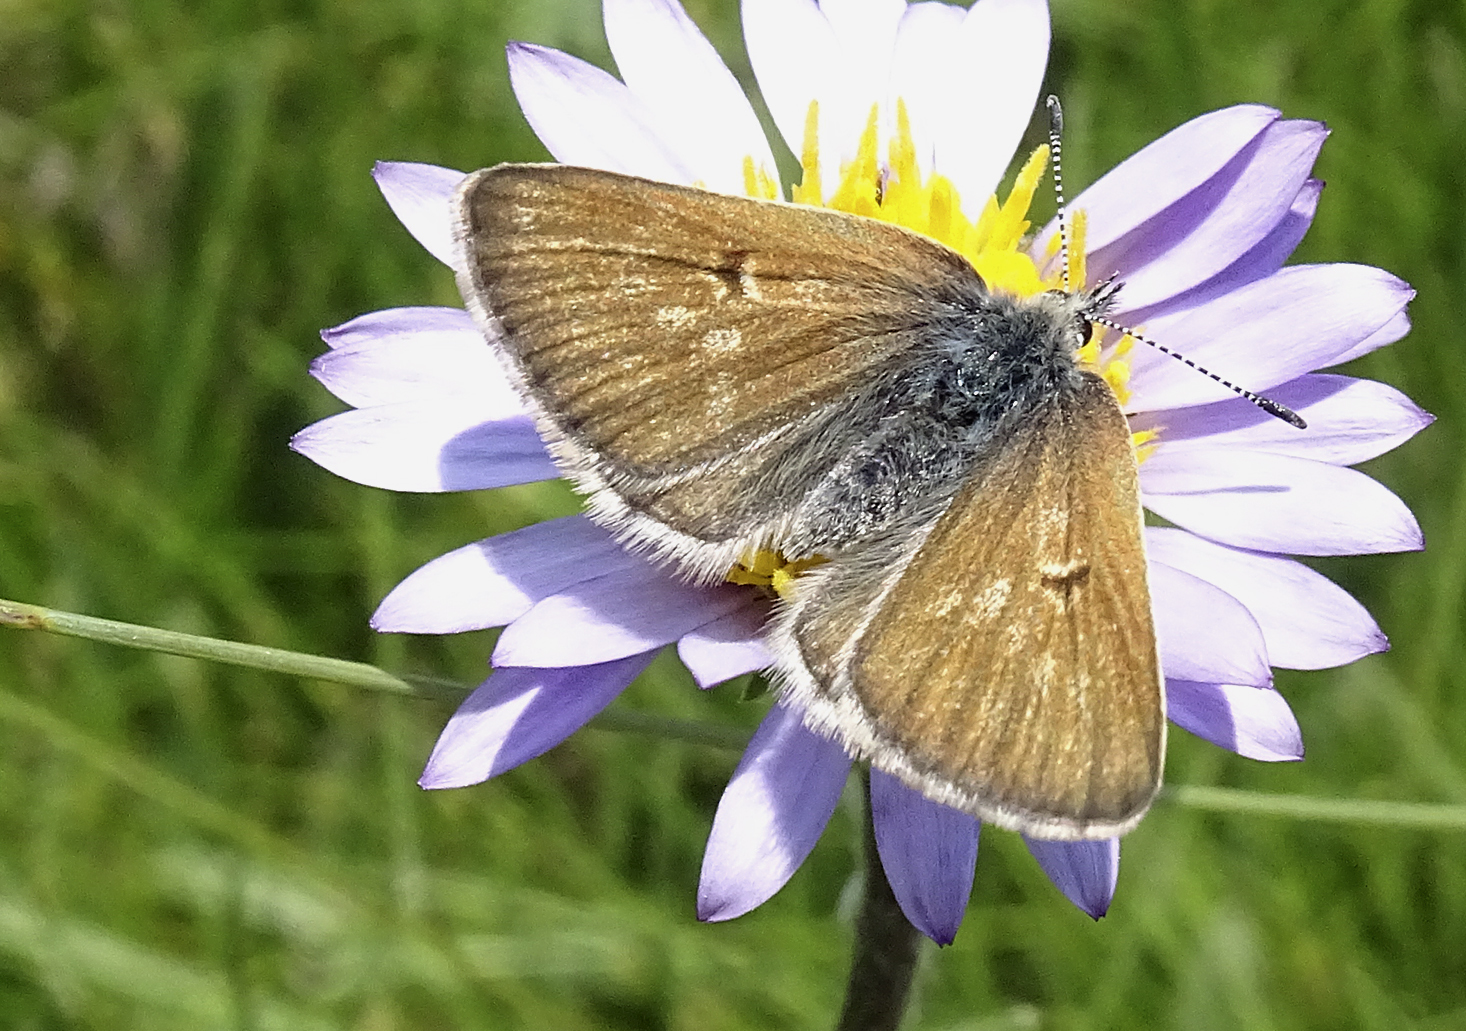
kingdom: Animalia
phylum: Arthropoda
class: Insecta
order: Lepidoptera
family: Lycaenidae
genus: Agriades
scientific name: Agriades podarce
